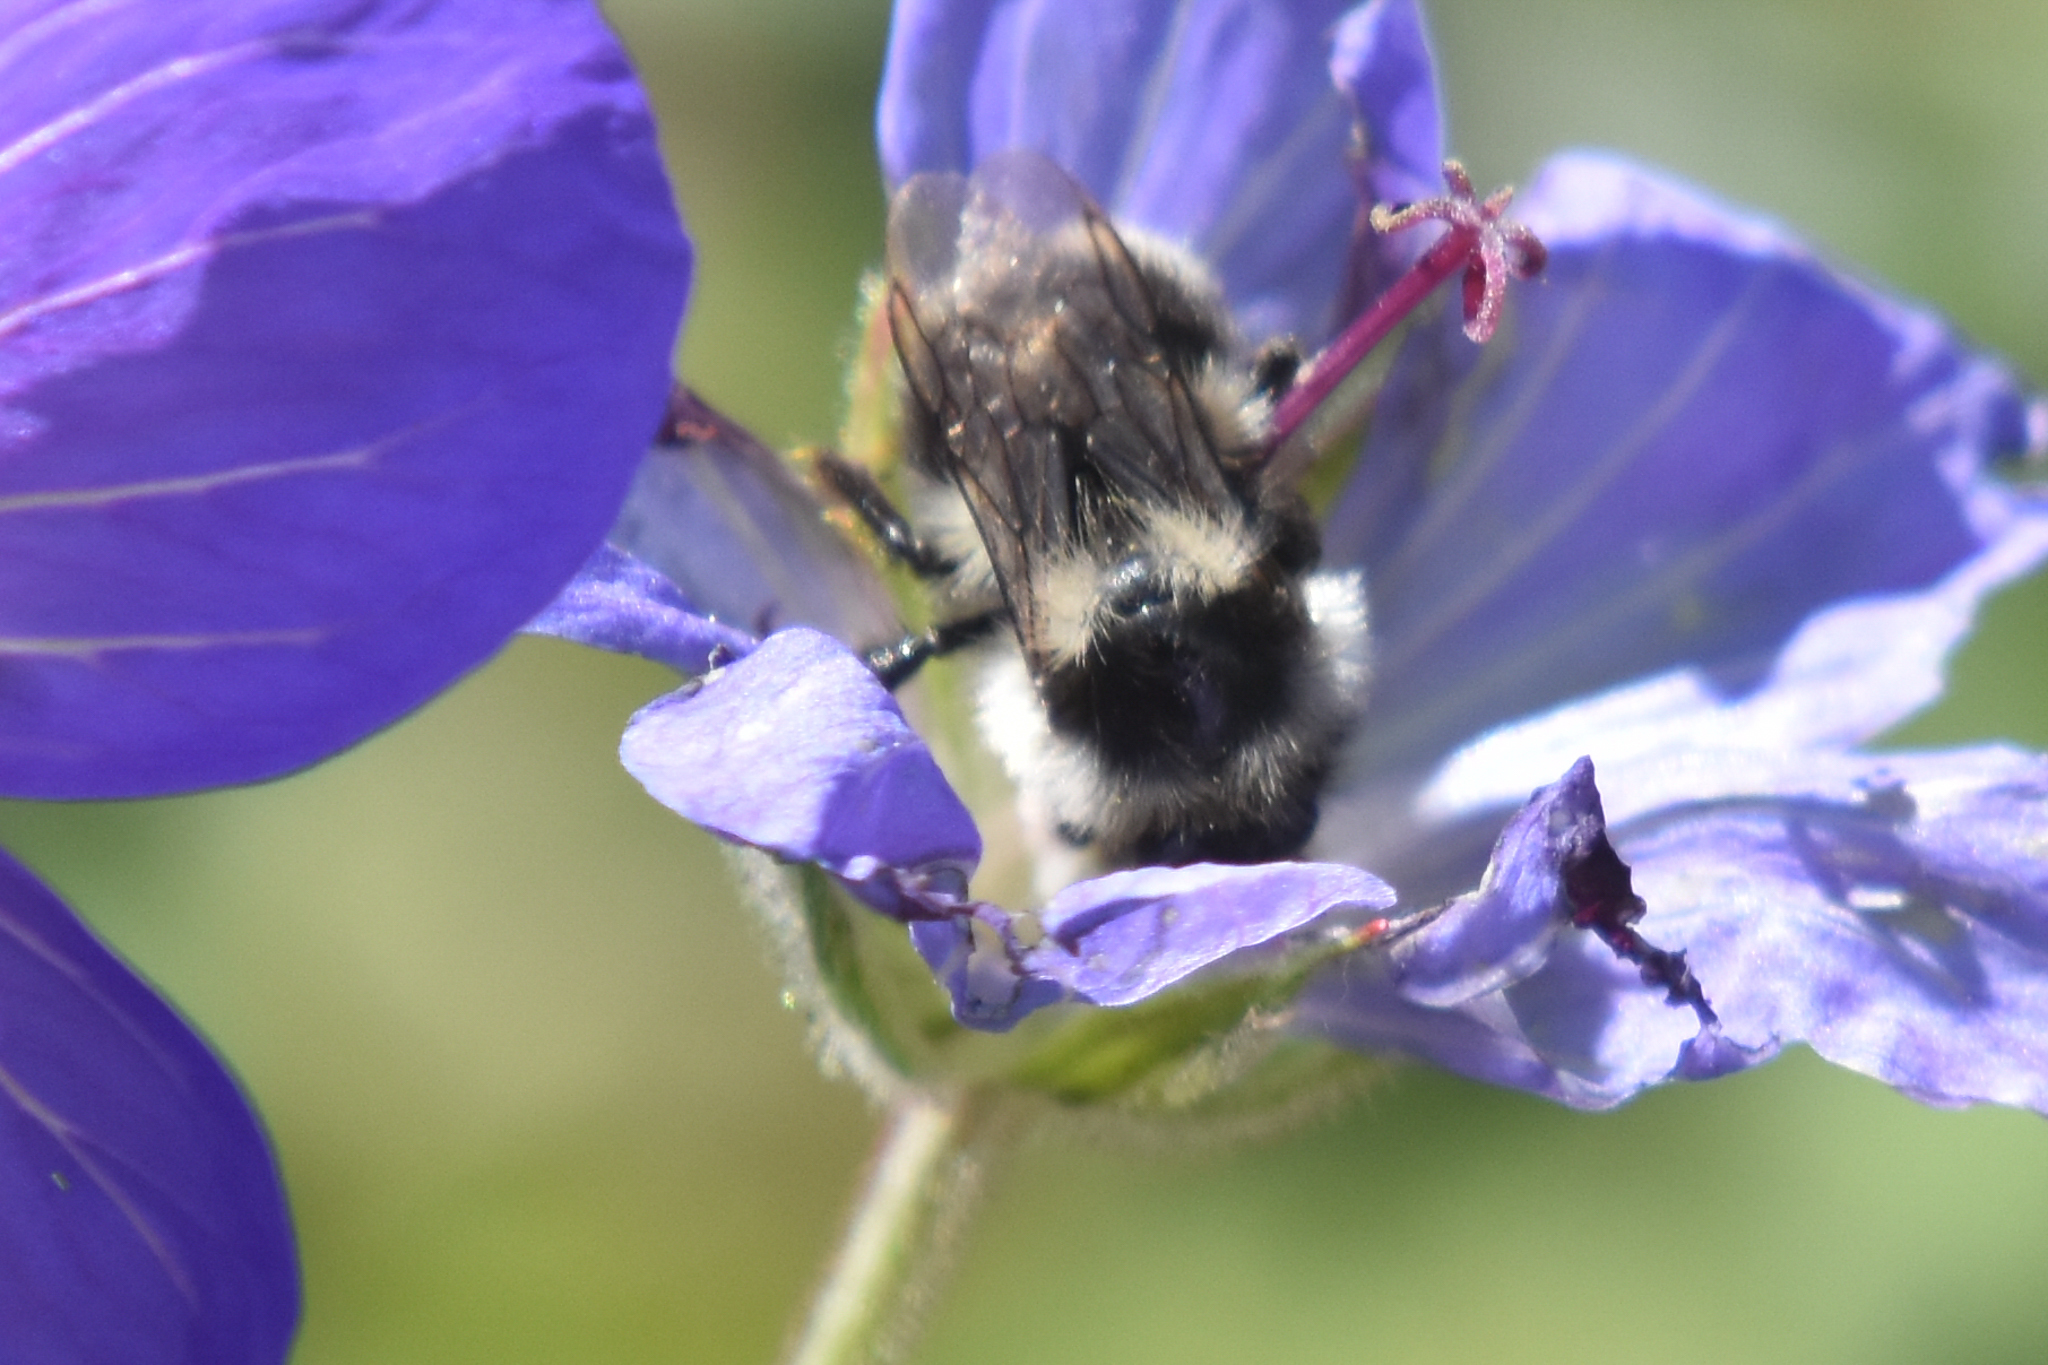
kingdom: Animalia
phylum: Arthropoda
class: Insecta
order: Hymenoptera
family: Apidae
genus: Bombus
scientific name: Bombus vancouverensis
